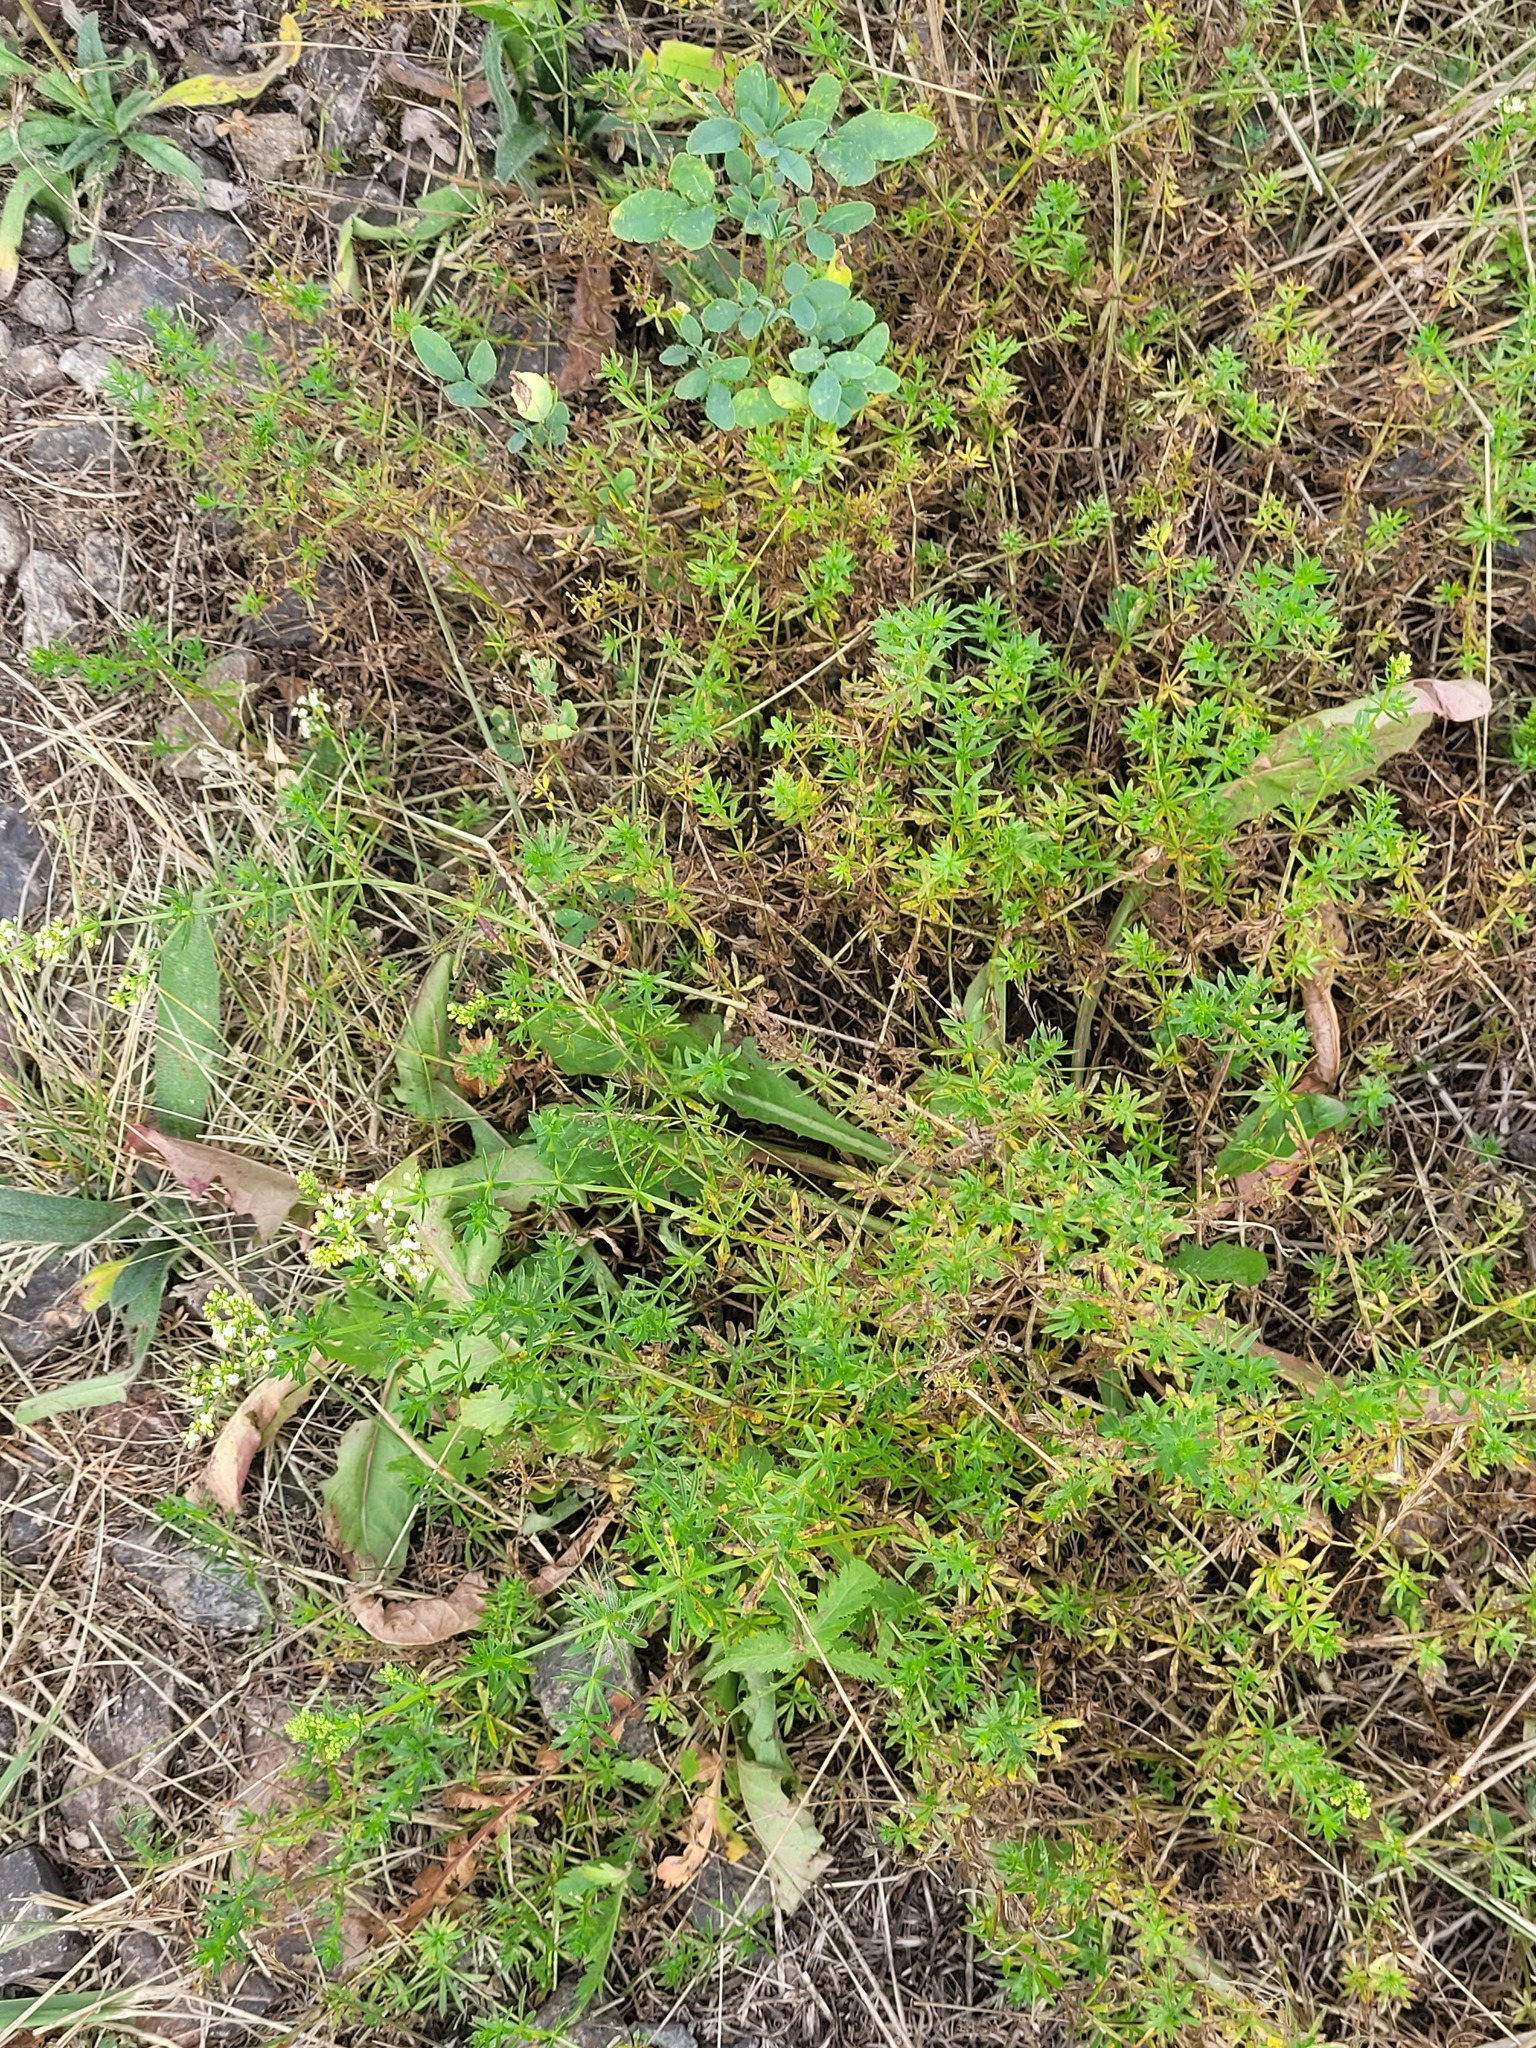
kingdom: Plantae
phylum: Tracheophyta
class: Magnoliopsida
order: Gentianales
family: Rubiaceae
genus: Galium
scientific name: Galium mollugo
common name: Hedge bedstraw
